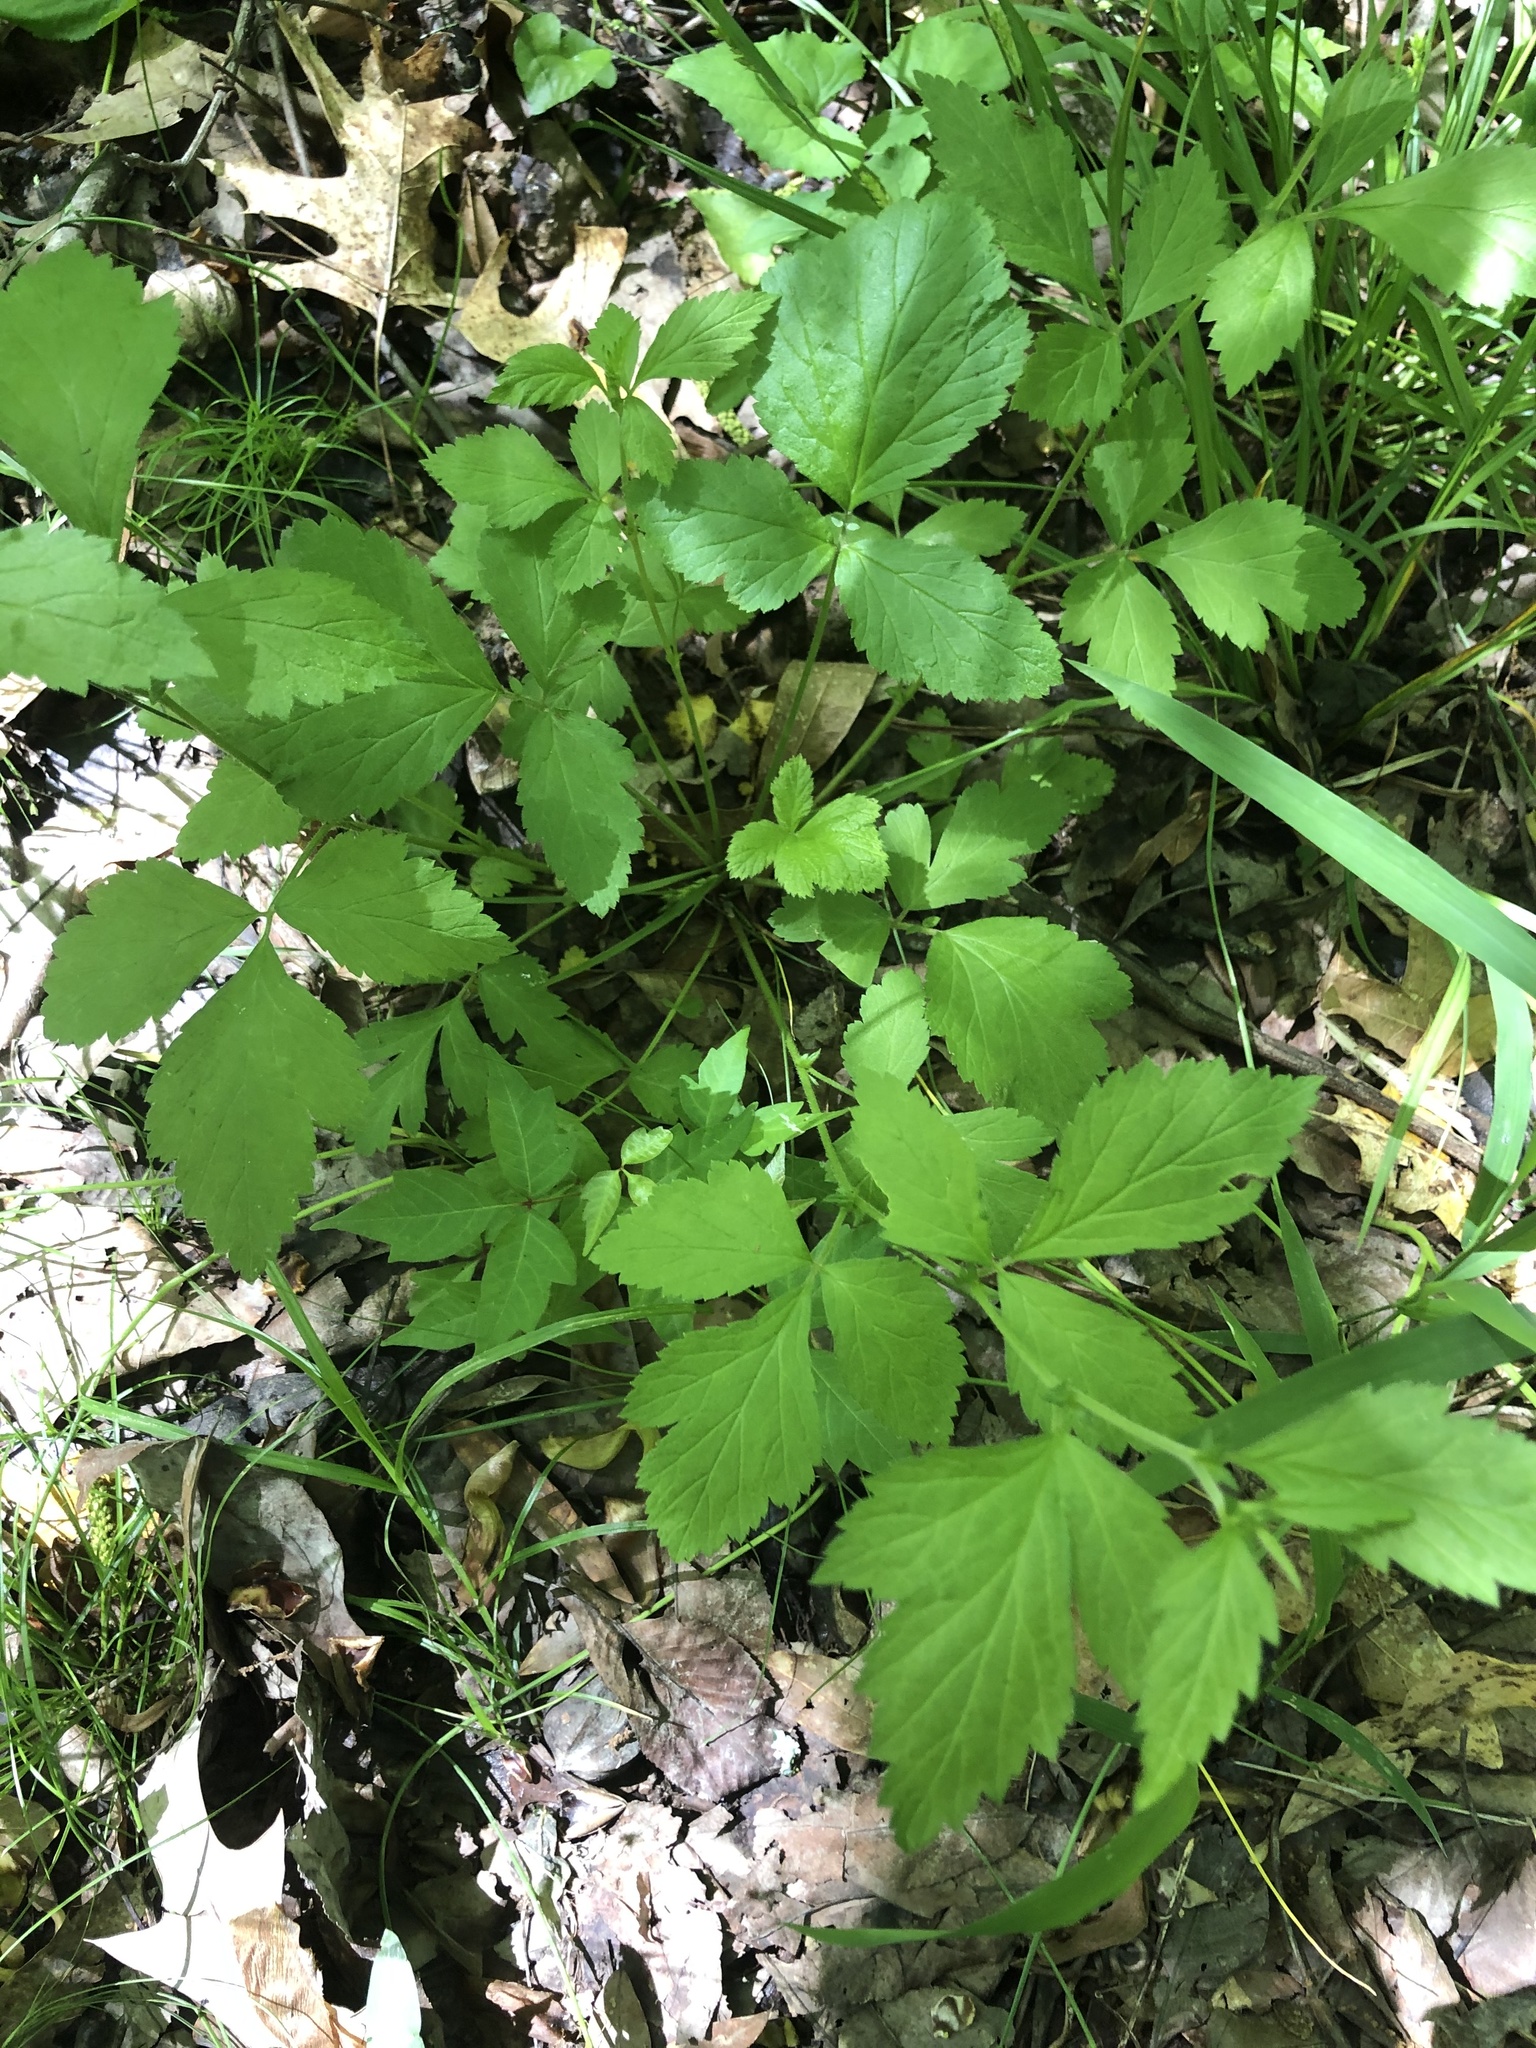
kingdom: Plantae
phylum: Tracheophyta
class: Magnoliopsida
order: Rosales
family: Rosaceae
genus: Geum
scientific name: Geum canadense
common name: White avens
